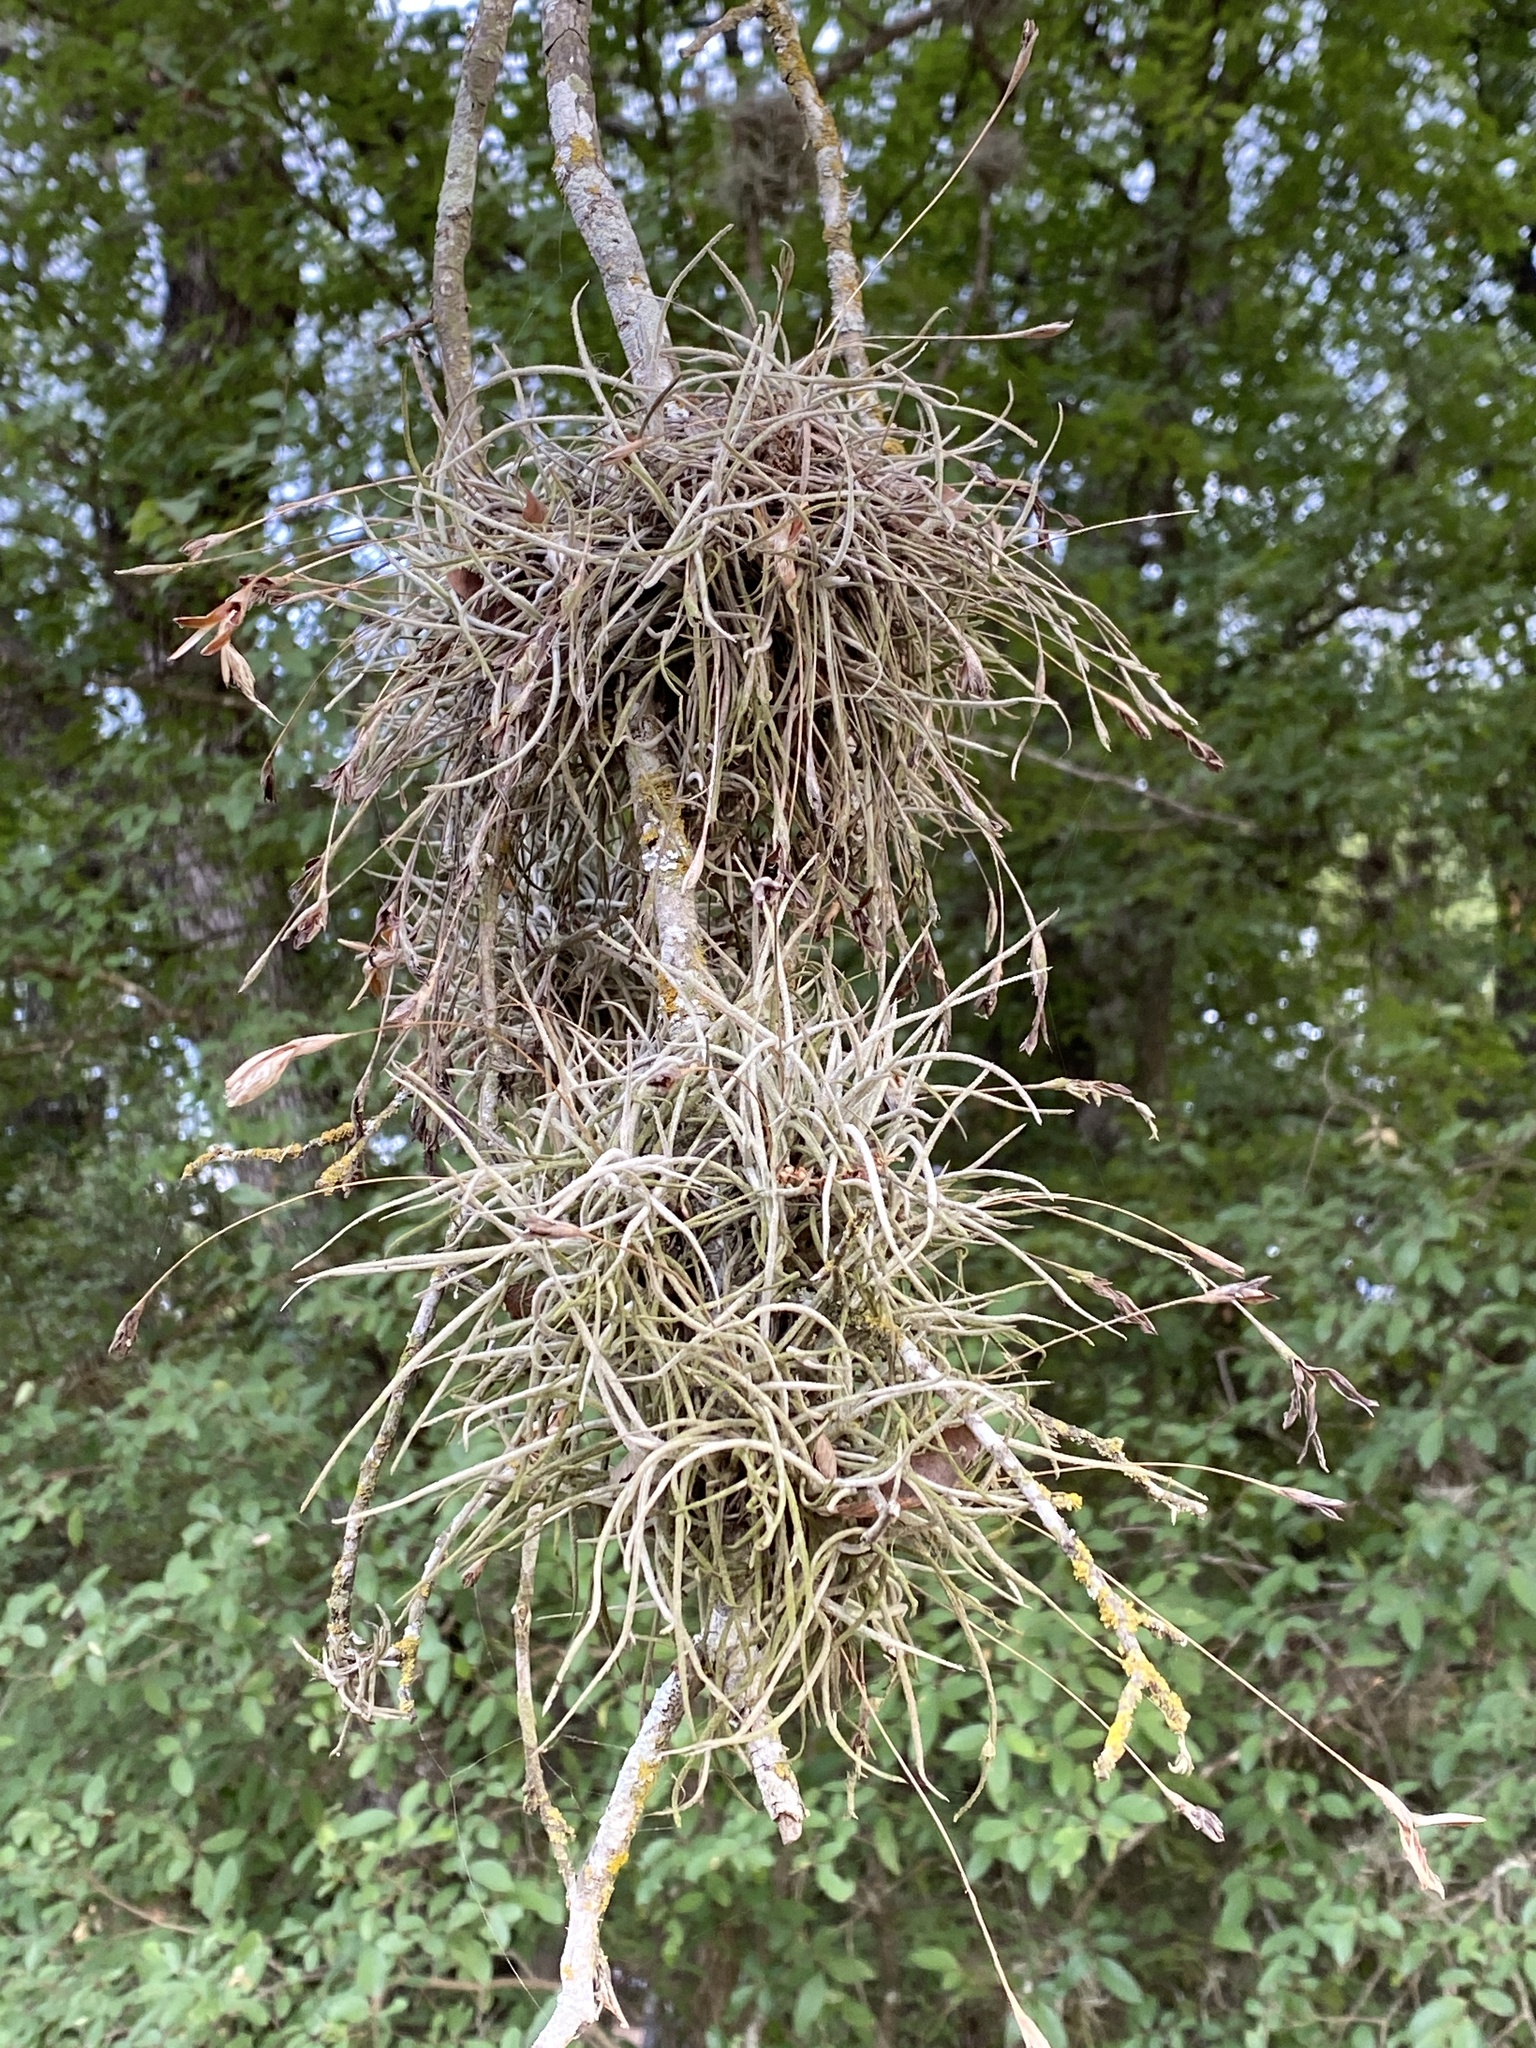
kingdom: Plantae
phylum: Tracheophyta
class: Liliopsida
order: Poales
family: Bromeliaceae
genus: Tillandsia
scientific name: Tillandsia recurvata
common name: Small ballmoss
